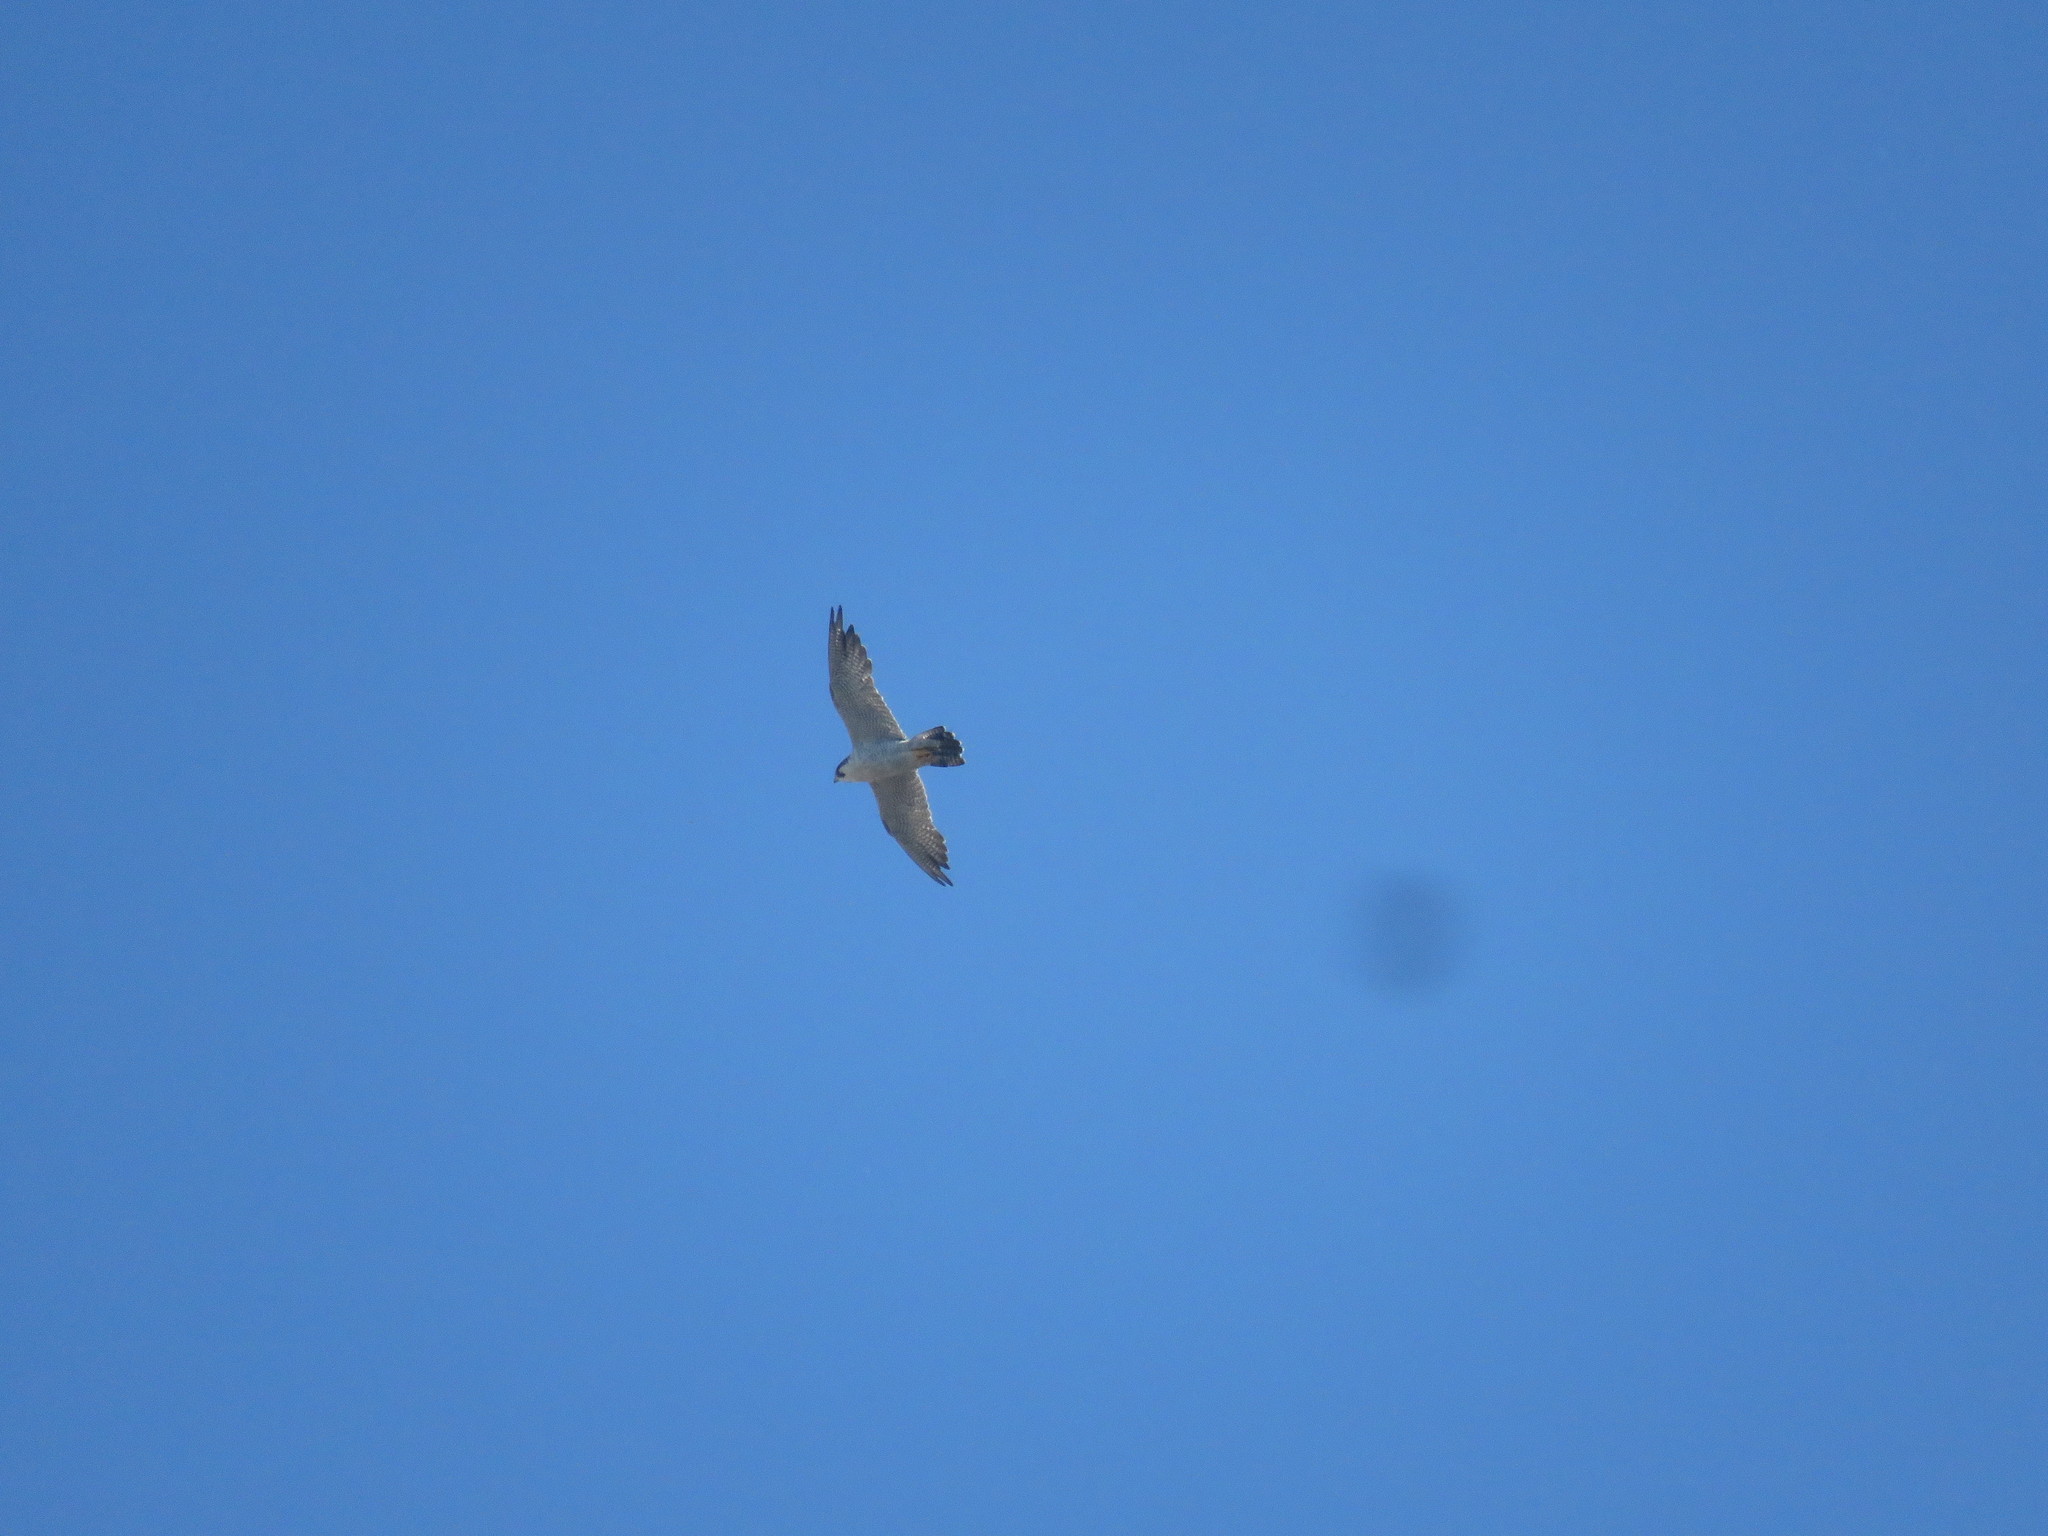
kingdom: Animalia
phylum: Chordata
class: Aves
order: Falconiformes
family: Falconidae
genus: Falco
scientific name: Falco peregrinus
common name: Peregrine falcon
